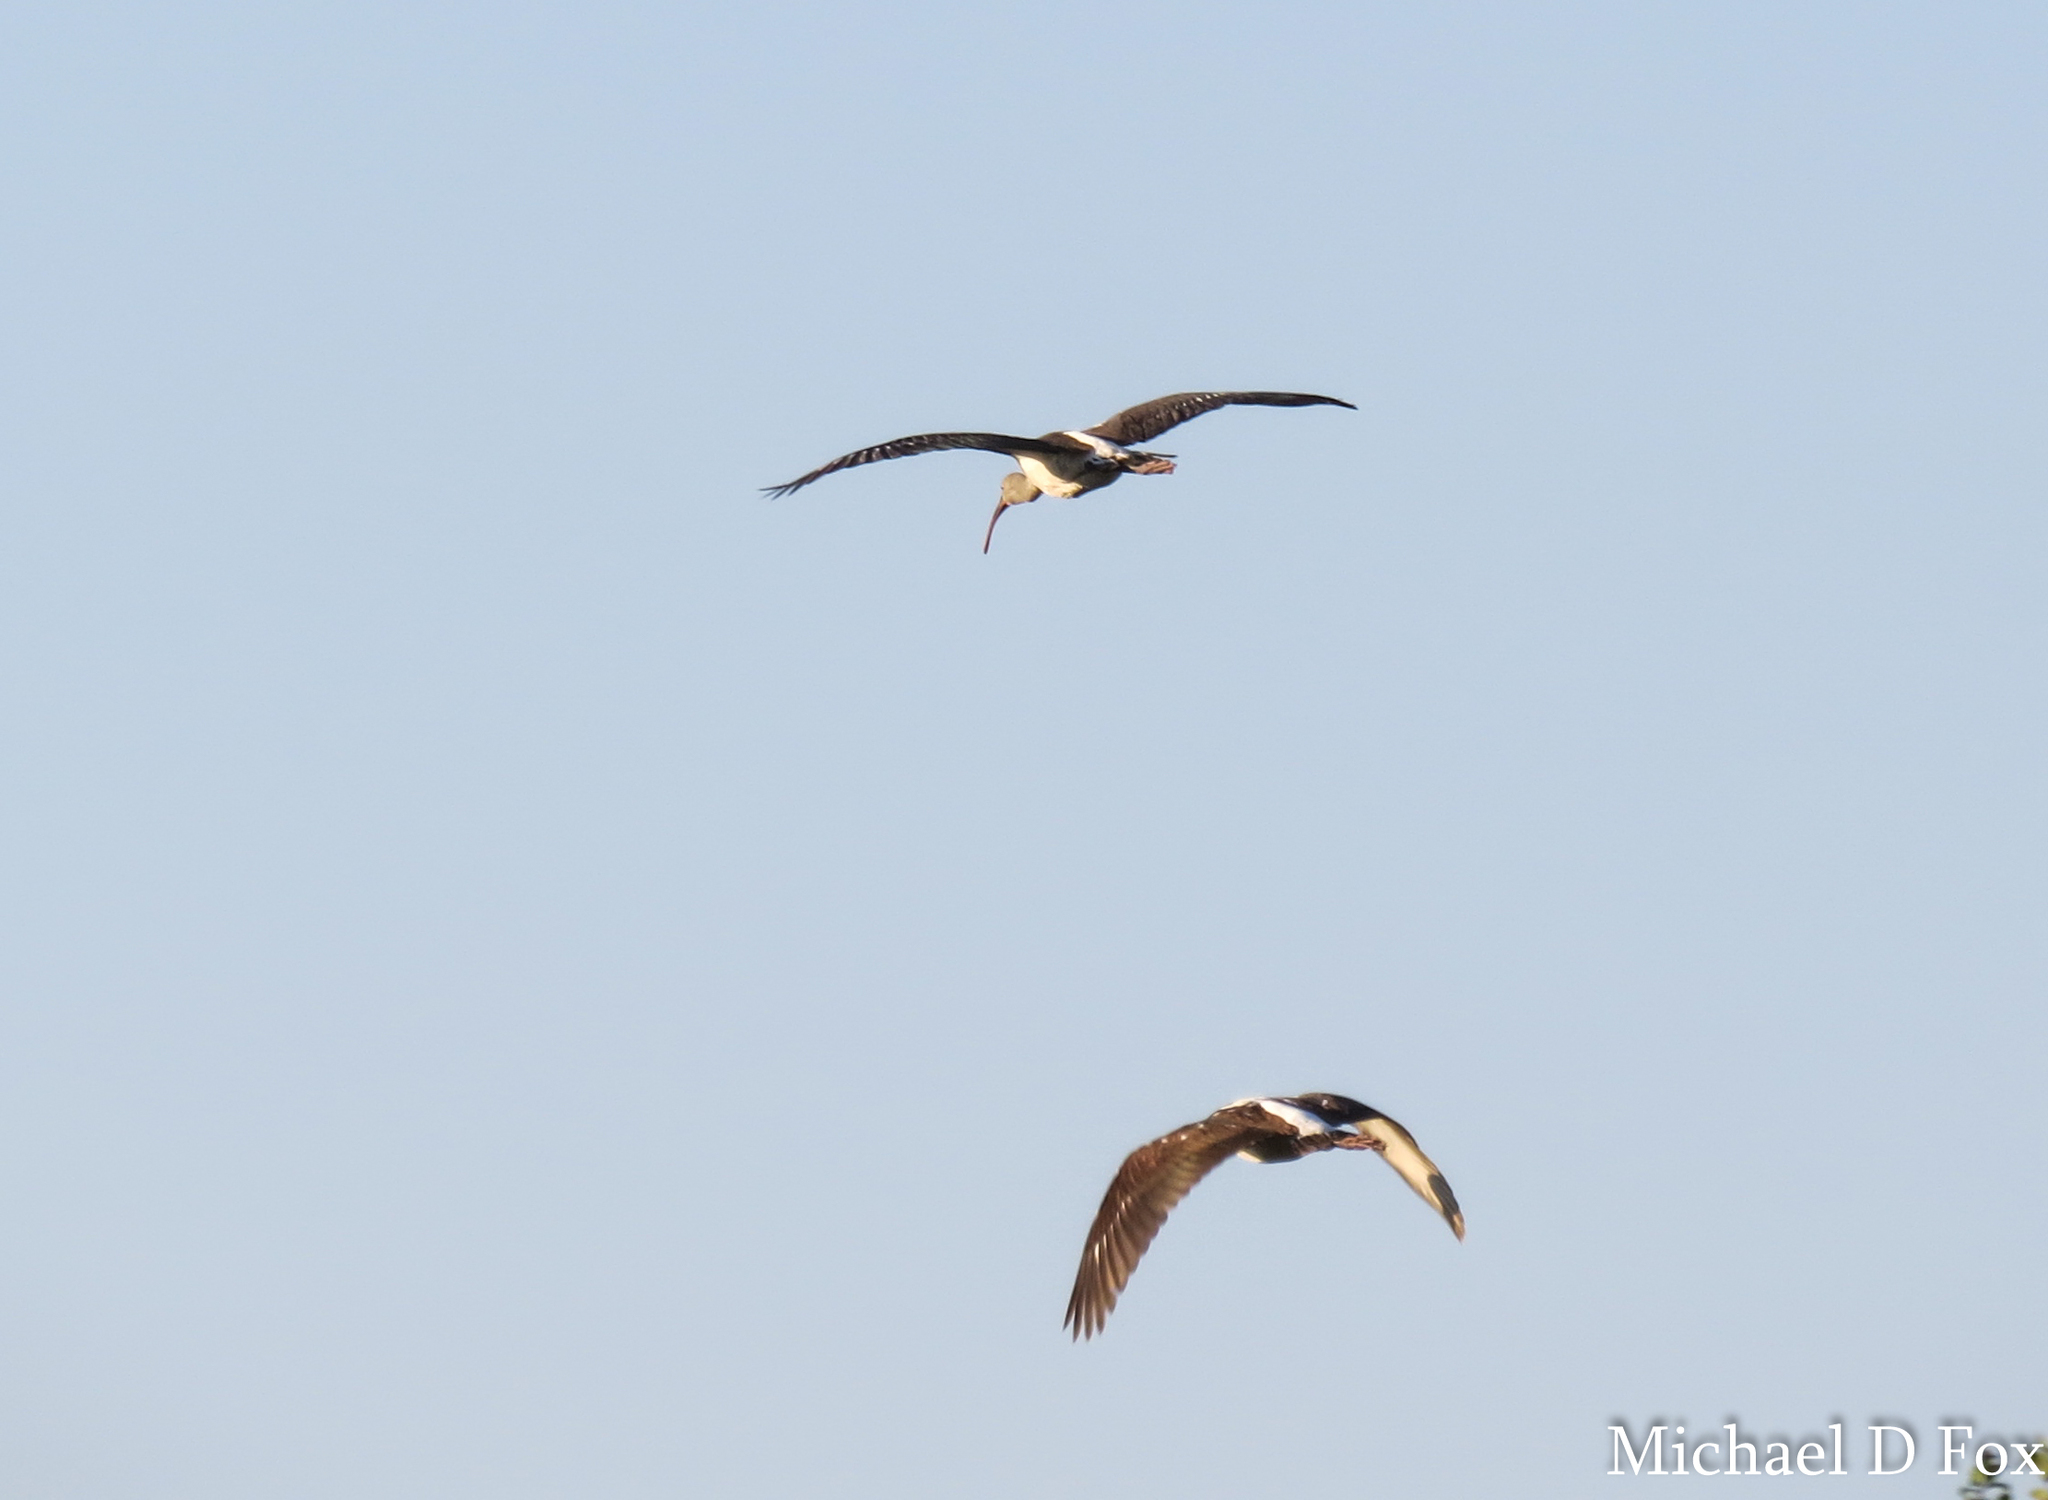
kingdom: Animalia
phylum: Chordata
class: Aves
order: Pelecaniformes
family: Threskiornithidae
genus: Eudocimus
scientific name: Eudocimus albus
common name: White ibis
